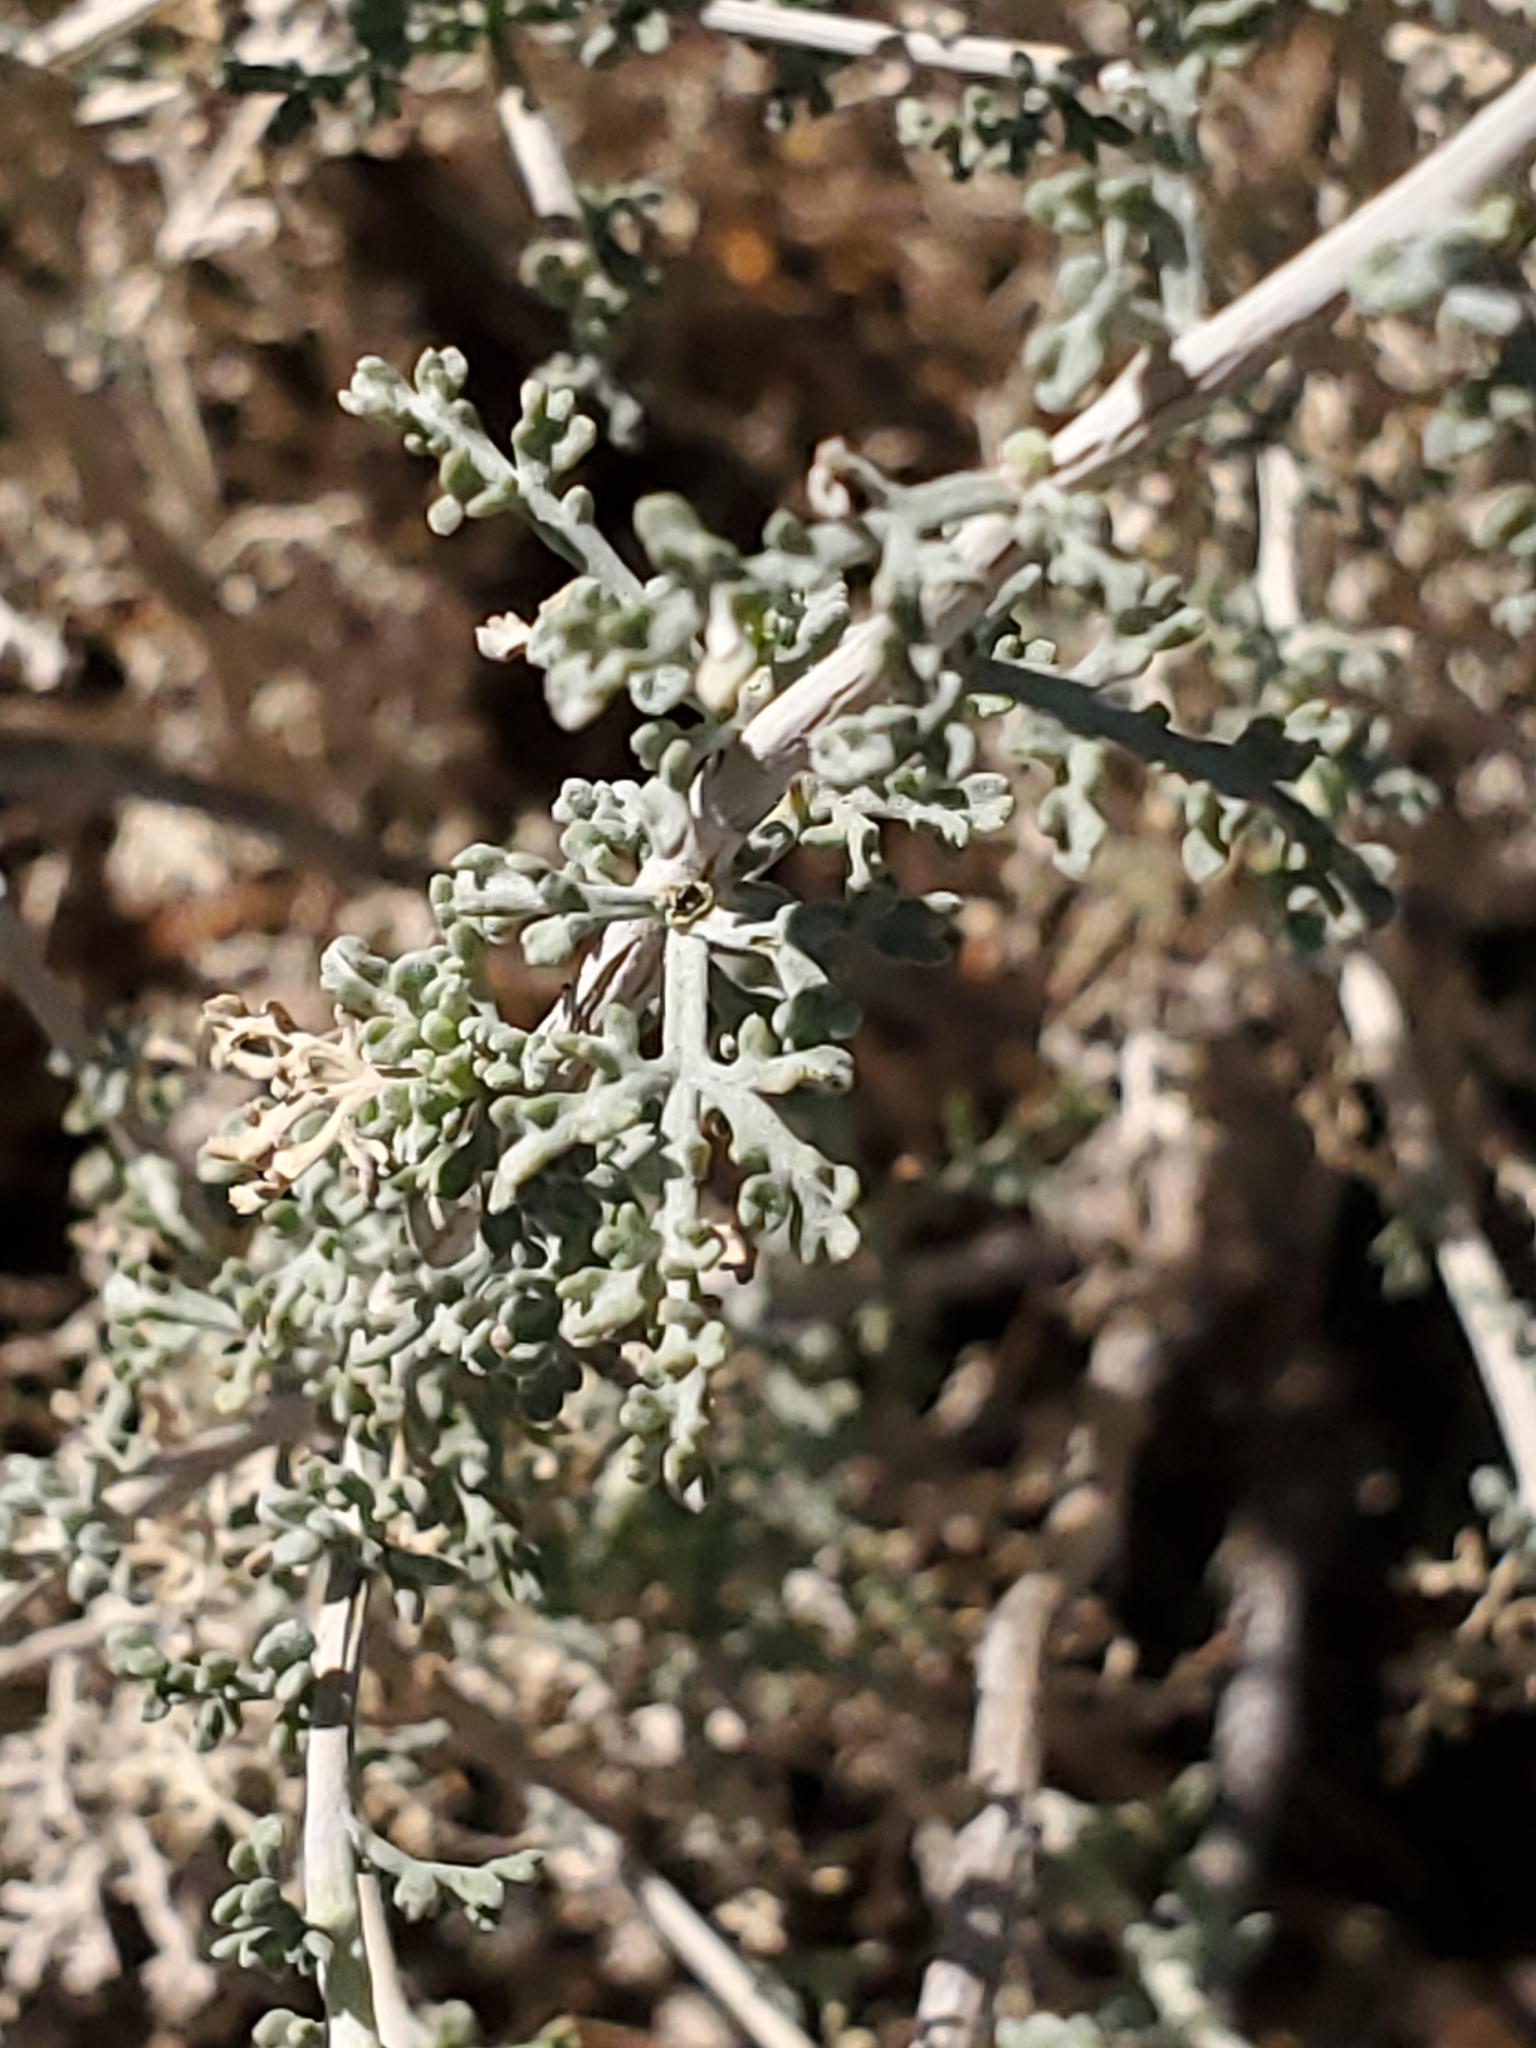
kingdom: Plantae
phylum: Tracheophyta
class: Magnoliopsida
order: Asterales
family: Asteraceae
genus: Ambrosia
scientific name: Ambrosia dumosa
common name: Bur-sage
